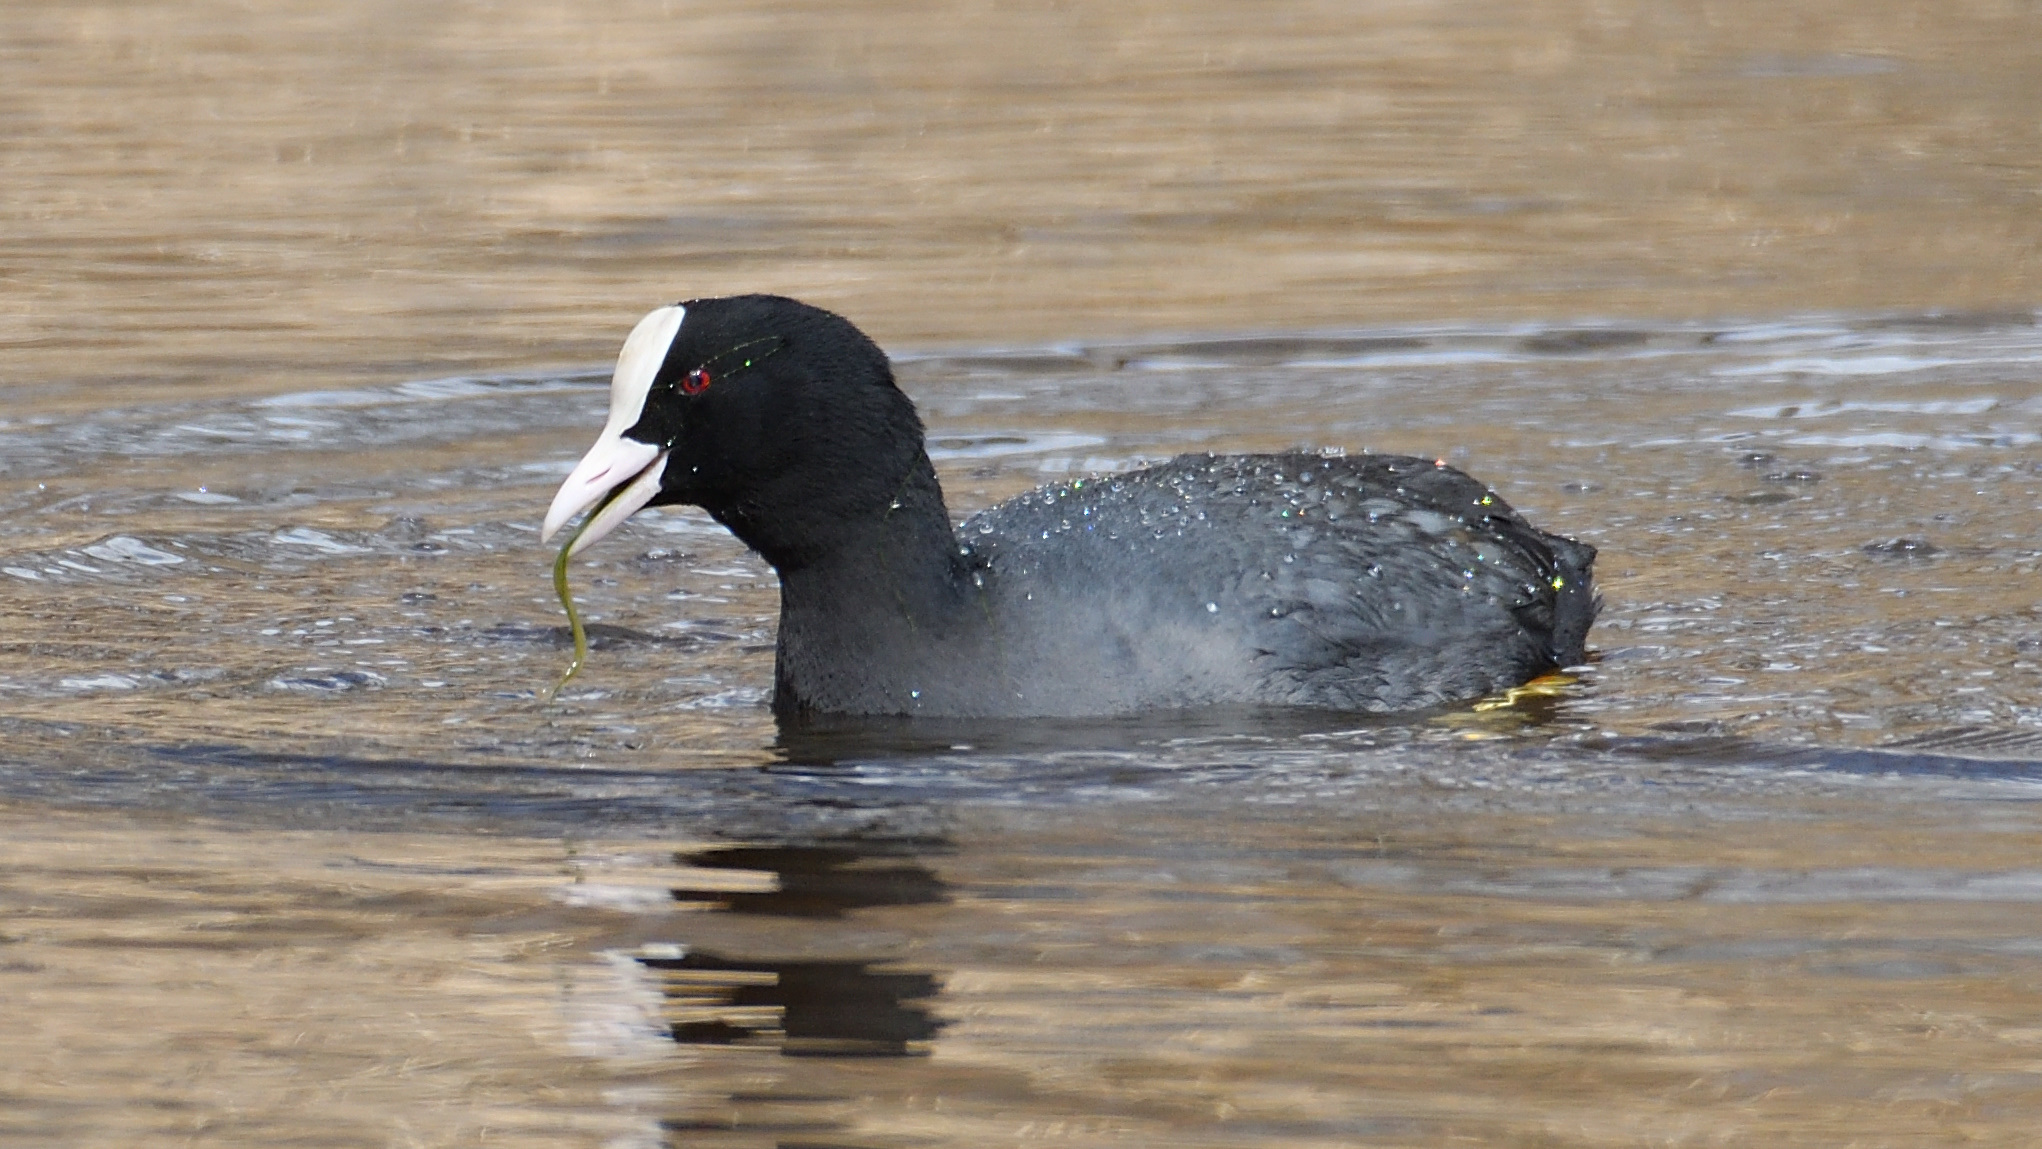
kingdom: Animalia
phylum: Chordata
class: Aves
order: Gruiformes
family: Rallidae
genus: Fulica
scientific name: Fulica atra
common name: Eurasian coot
